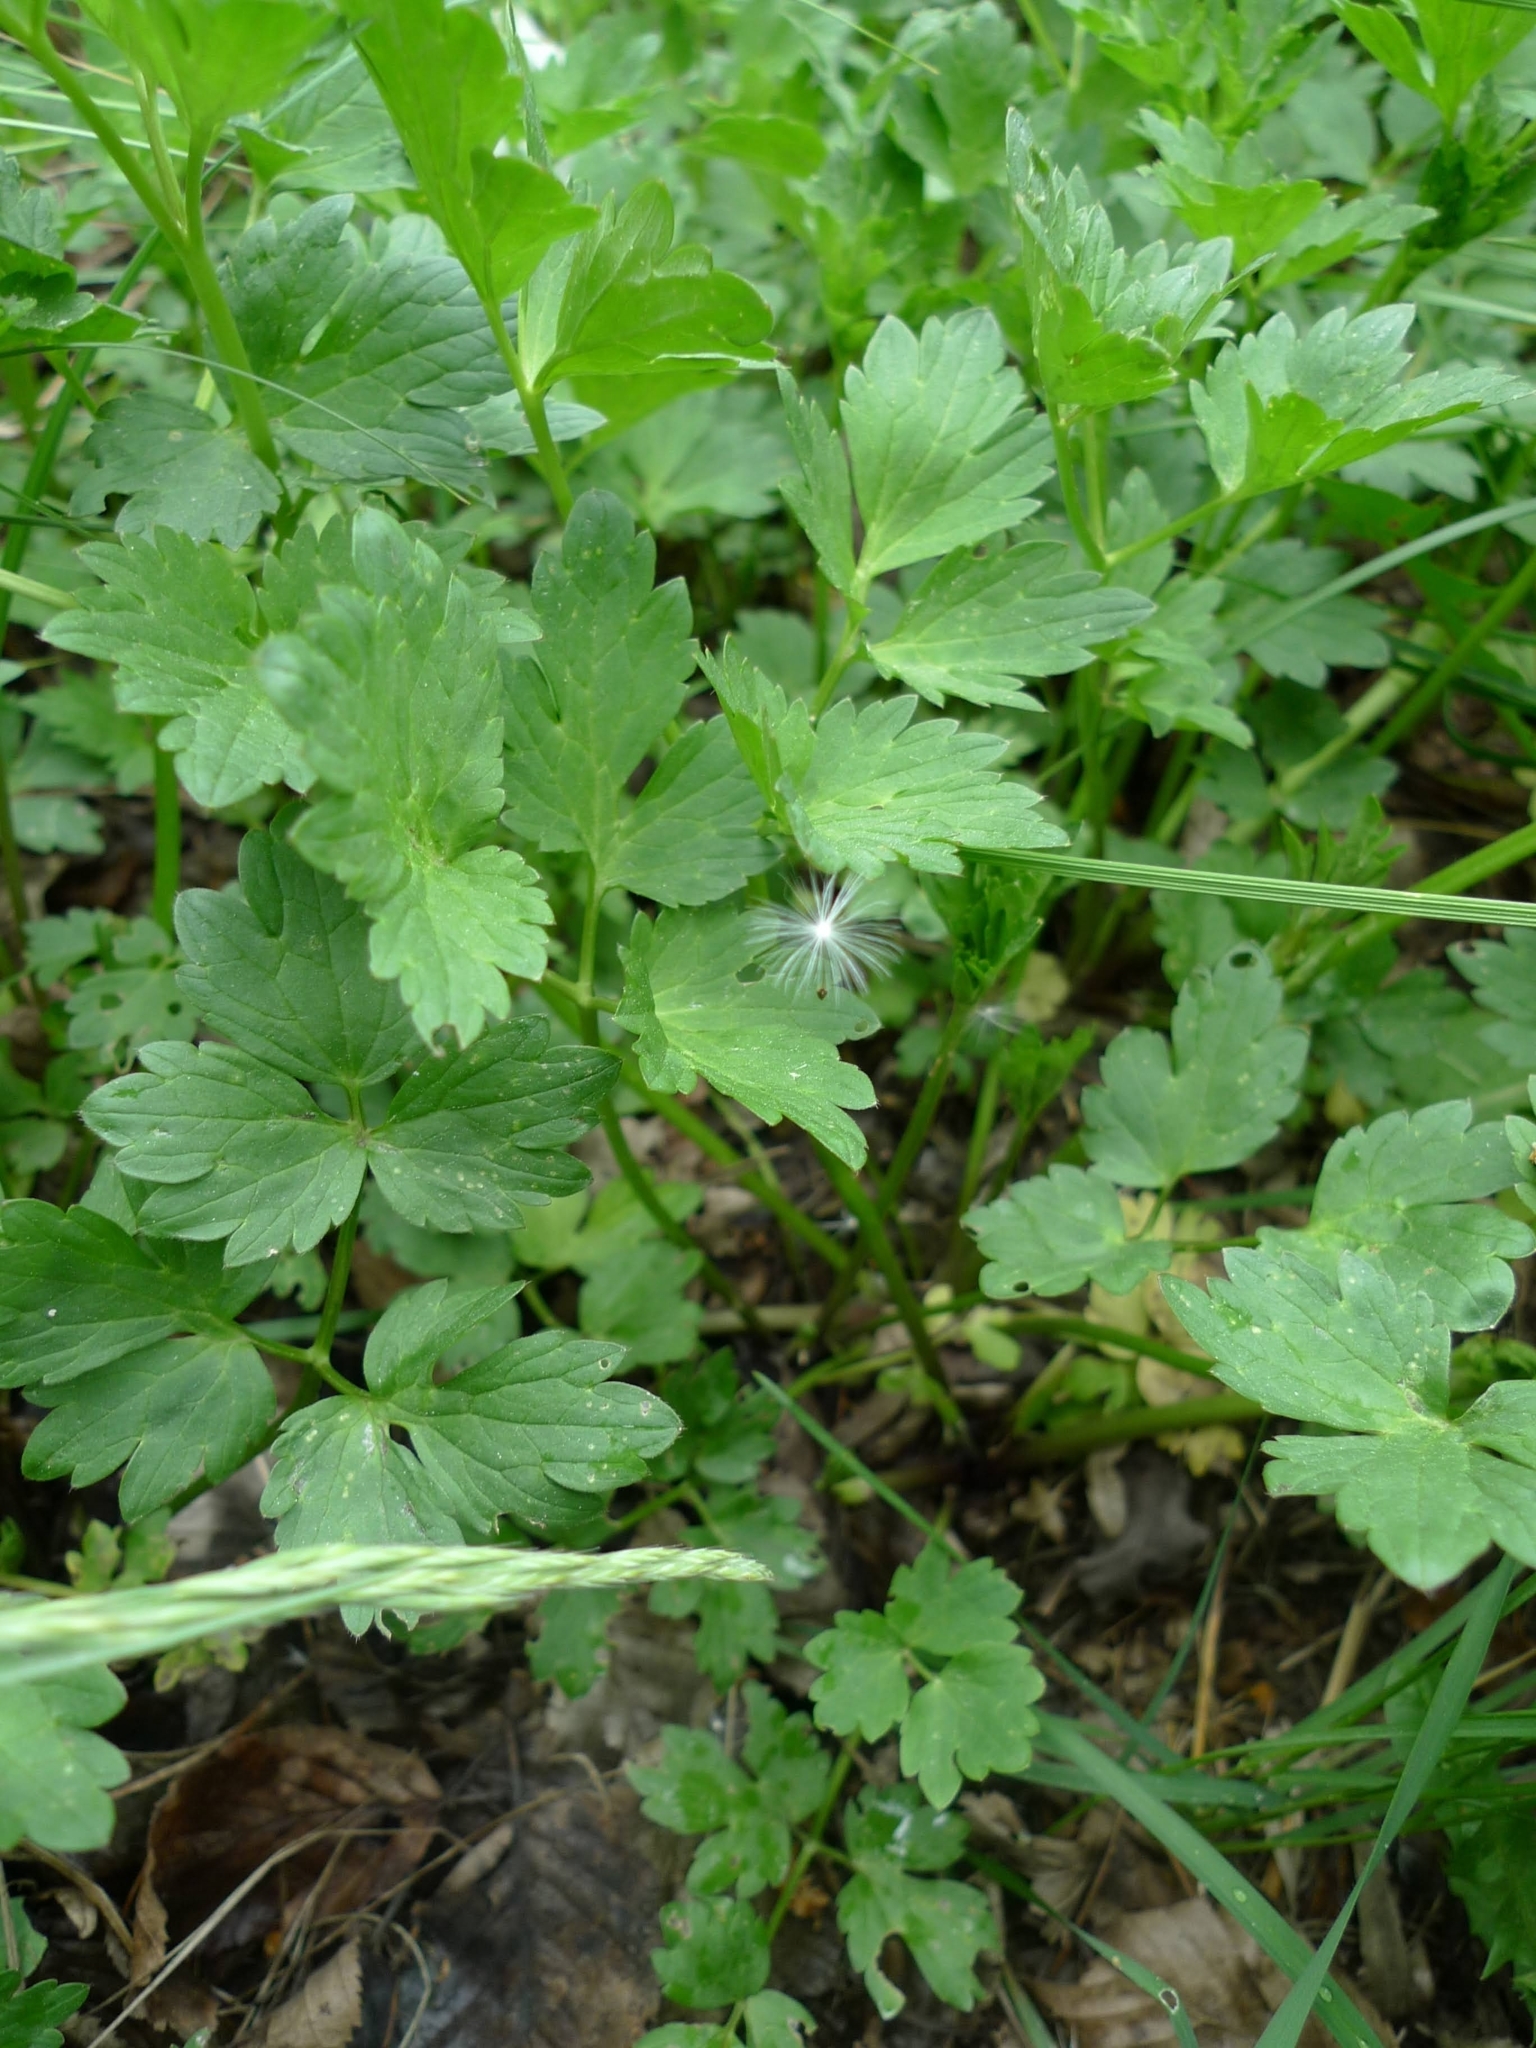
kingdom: Plantae
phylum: Tracheophyta
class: Magnoliopsida
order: Ranunculales
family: Ranunculaceae
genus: Ranunculus
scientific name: Ranunculus repens
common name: Creeping buttercup
